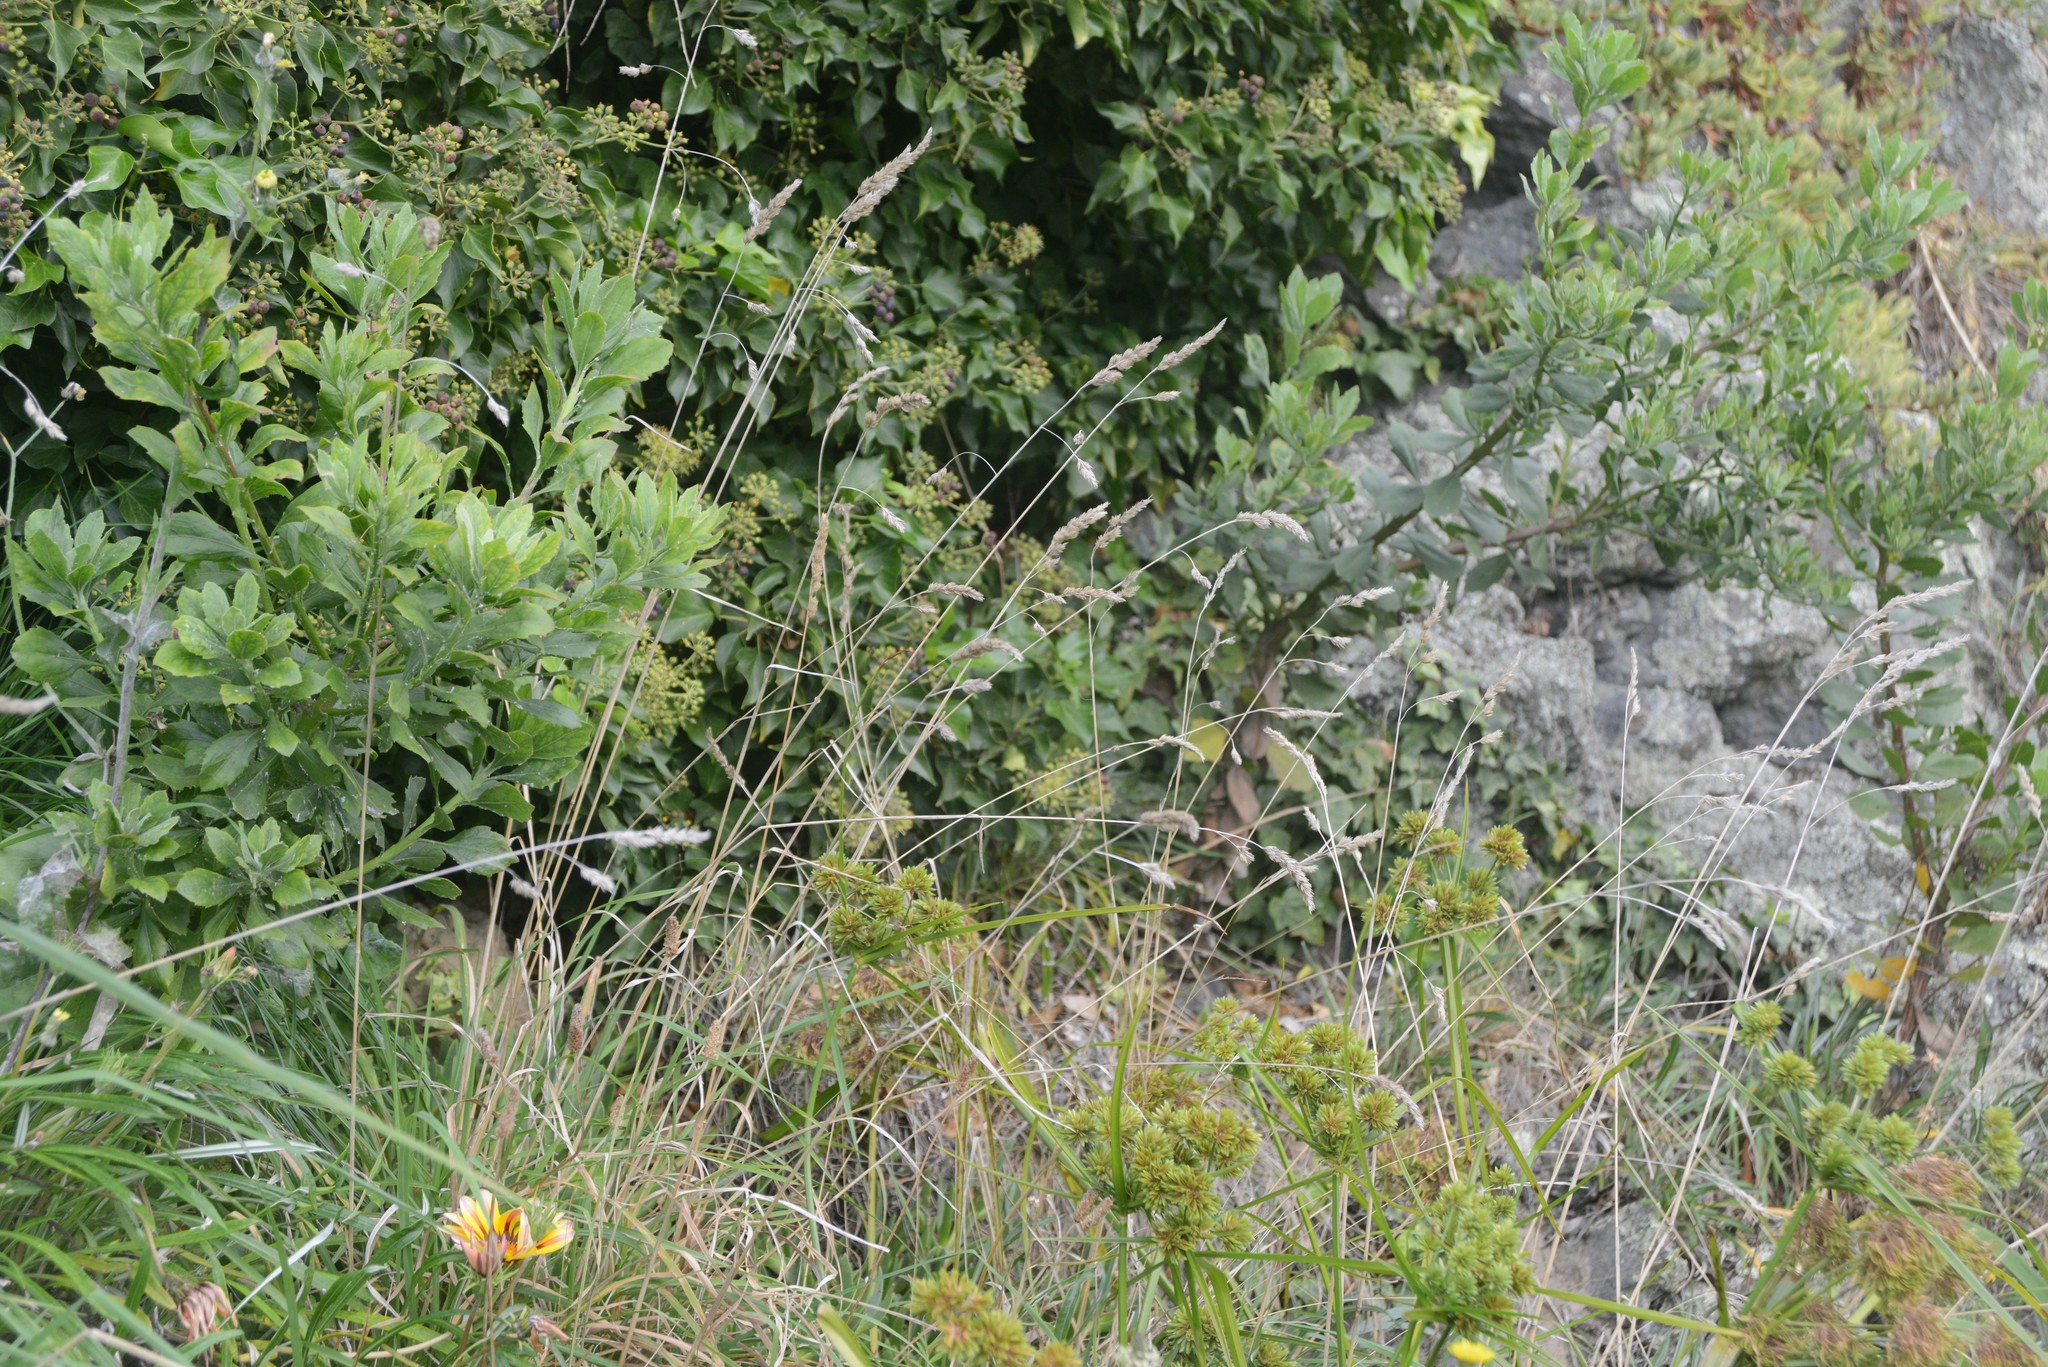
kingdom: Plantae
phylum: Tracheophyta
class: Magnoliopsida
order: Asterales
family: Asteraceae
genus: Osteospermum
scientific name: Osteospermum moniliferum
